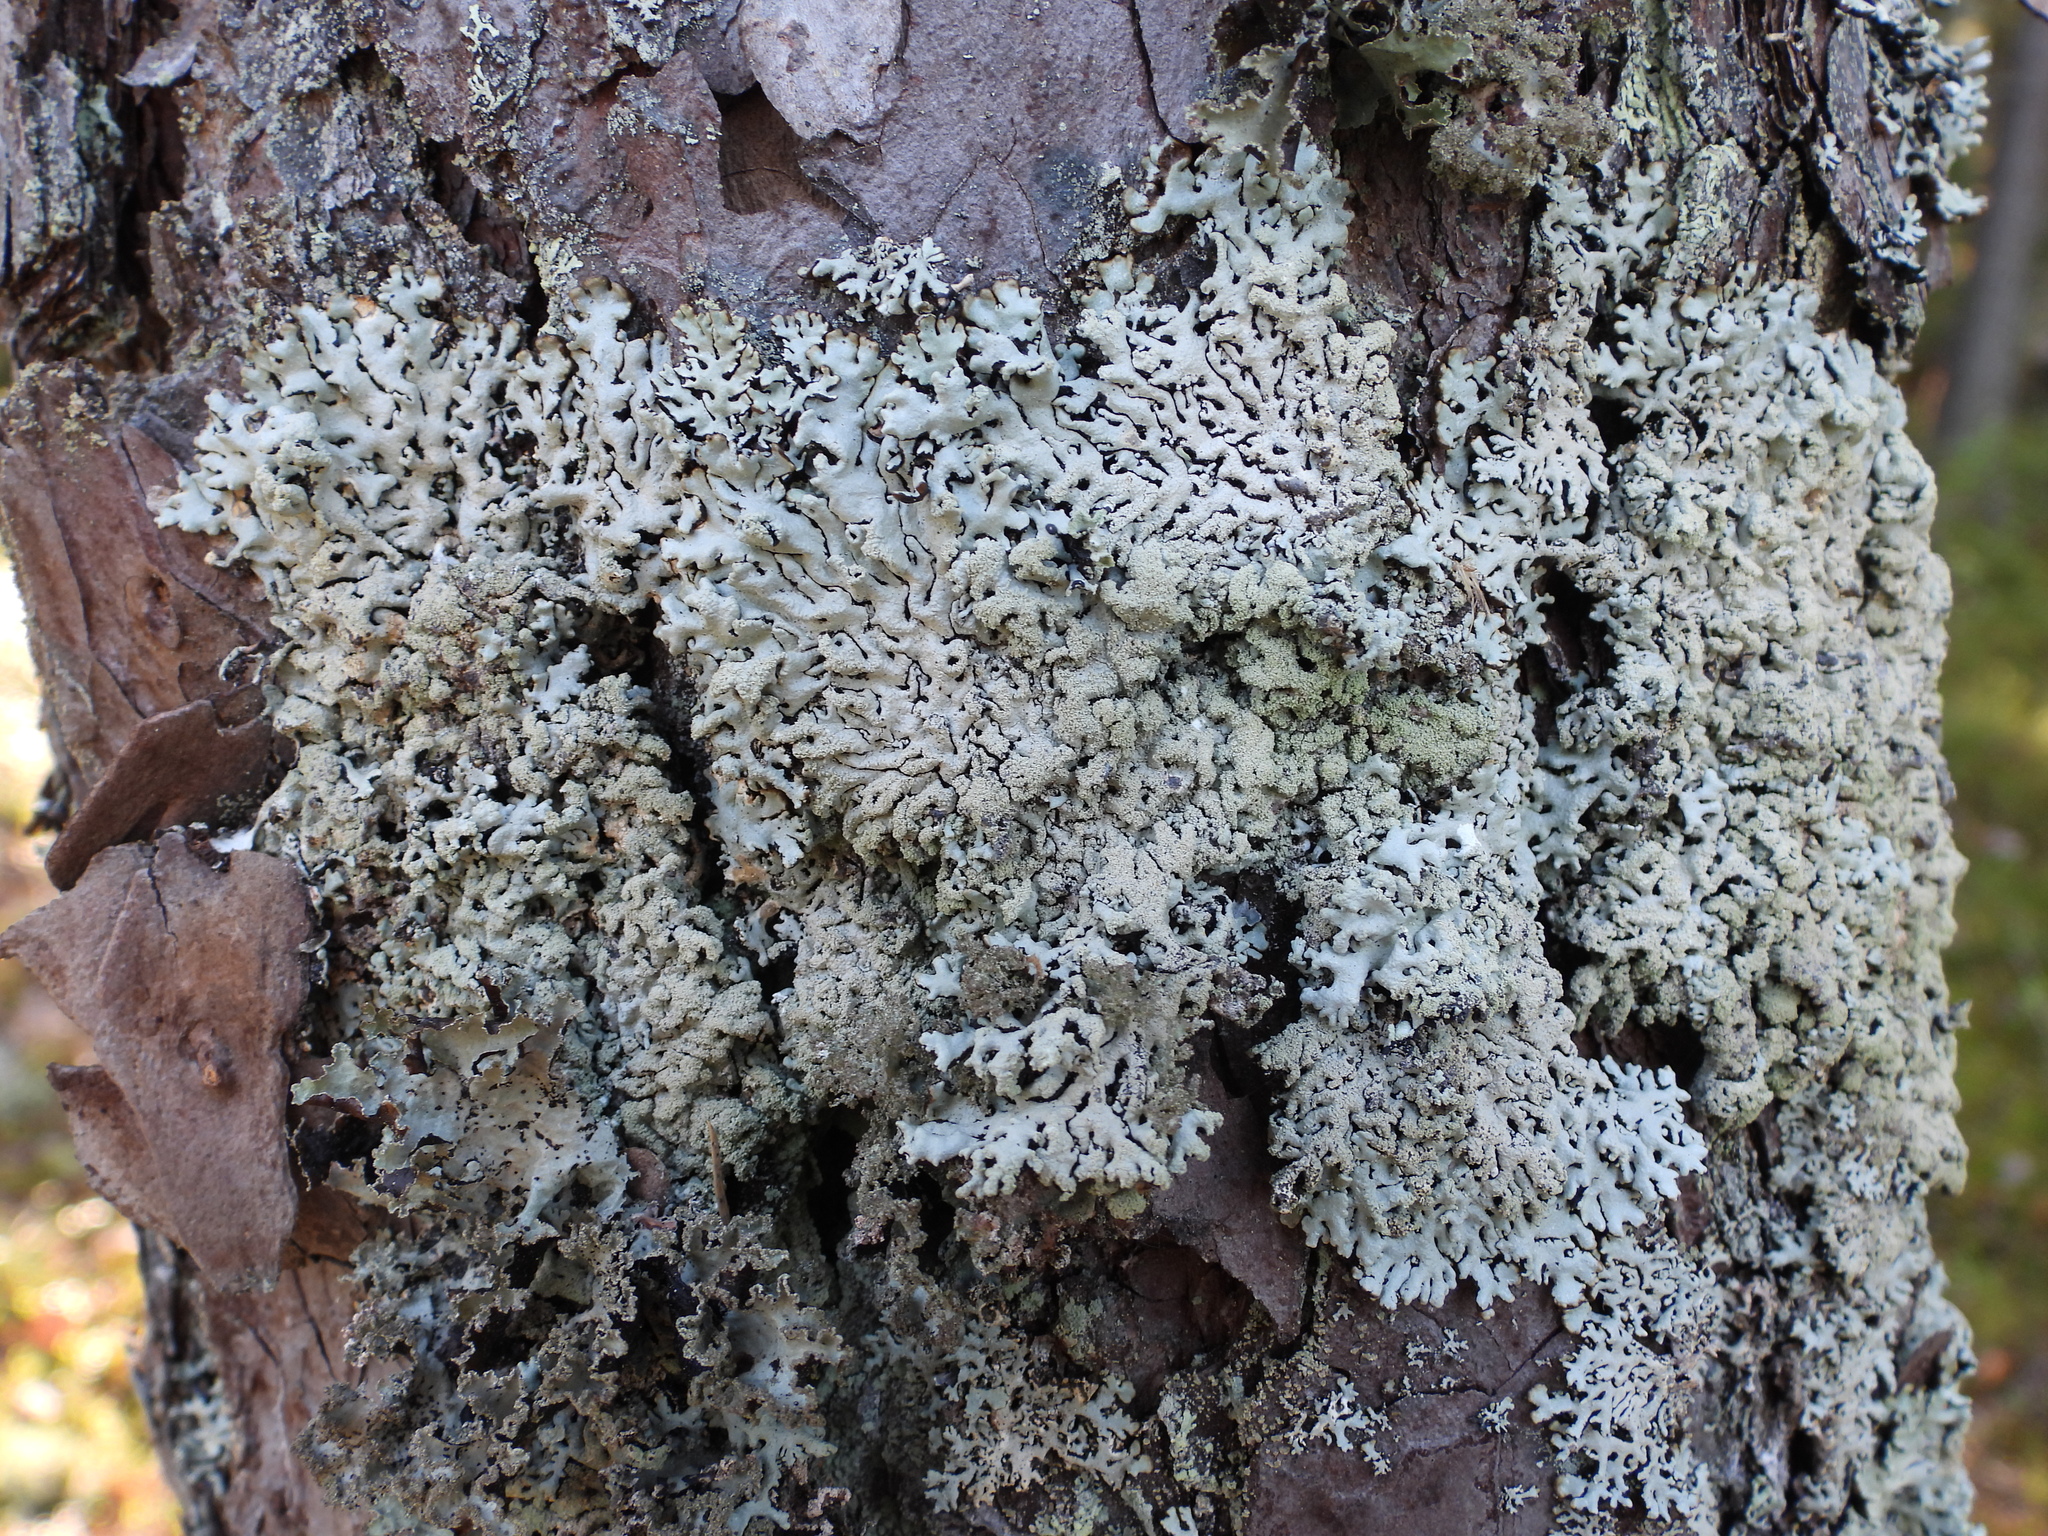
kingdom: Fungi
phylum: Ascomycota
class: Lecanoromycetes
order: Lecanorales
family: Parmeliaceae
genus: Hypogymnia
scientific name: Hypogymnia farinacea
